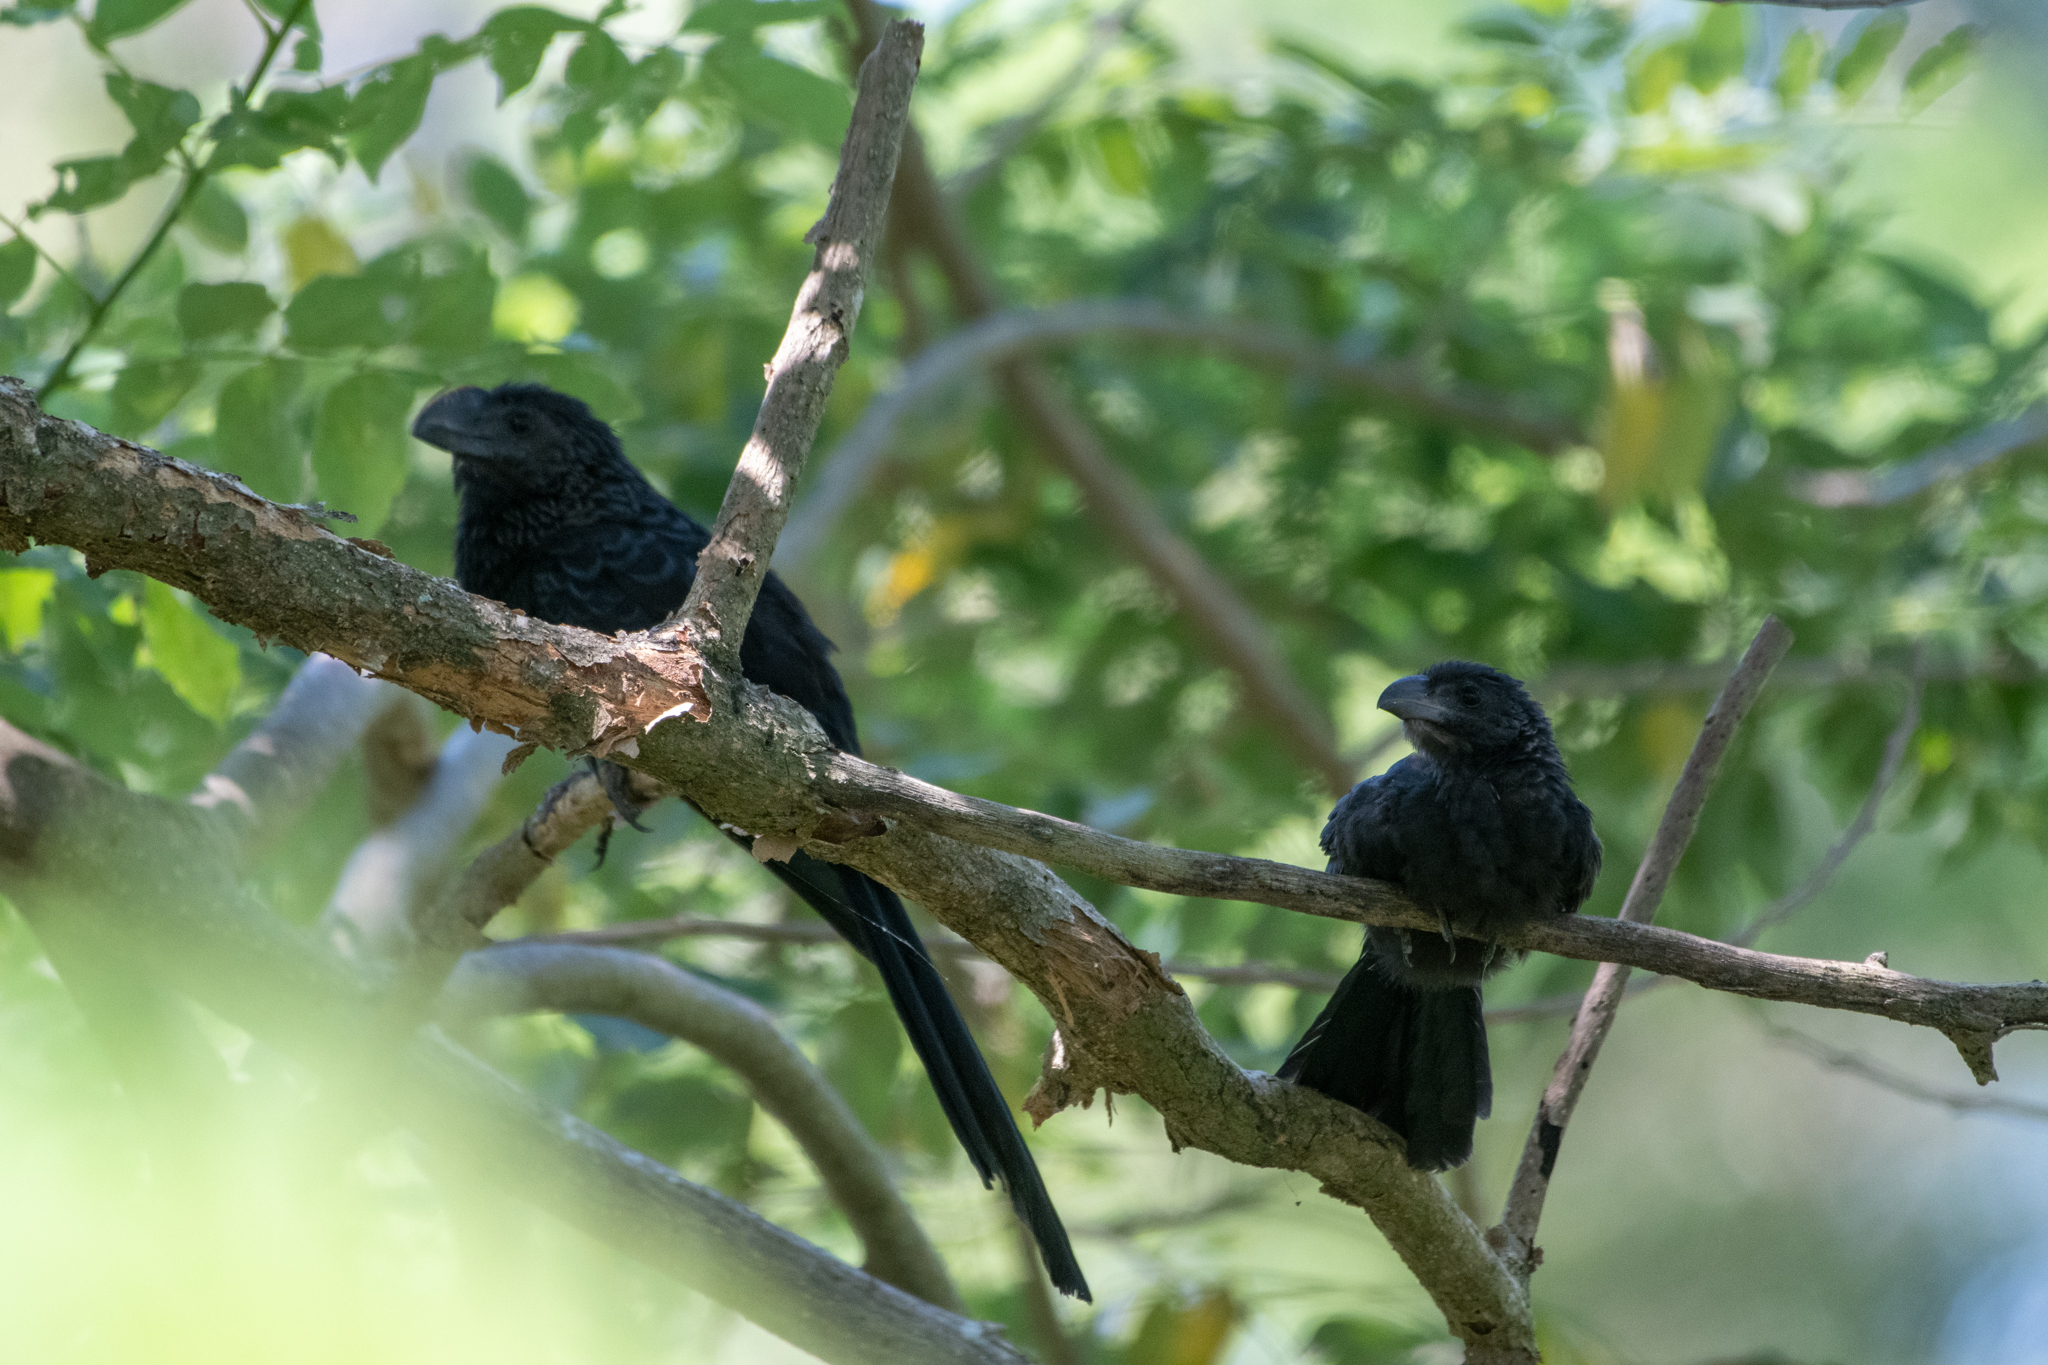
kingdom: Animalia
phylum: Chordata
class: Aves
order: Cuculiformes
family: Cuculidae
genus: Crotophaga
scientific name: Crotophaga ani
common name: Smooth-billed ani
